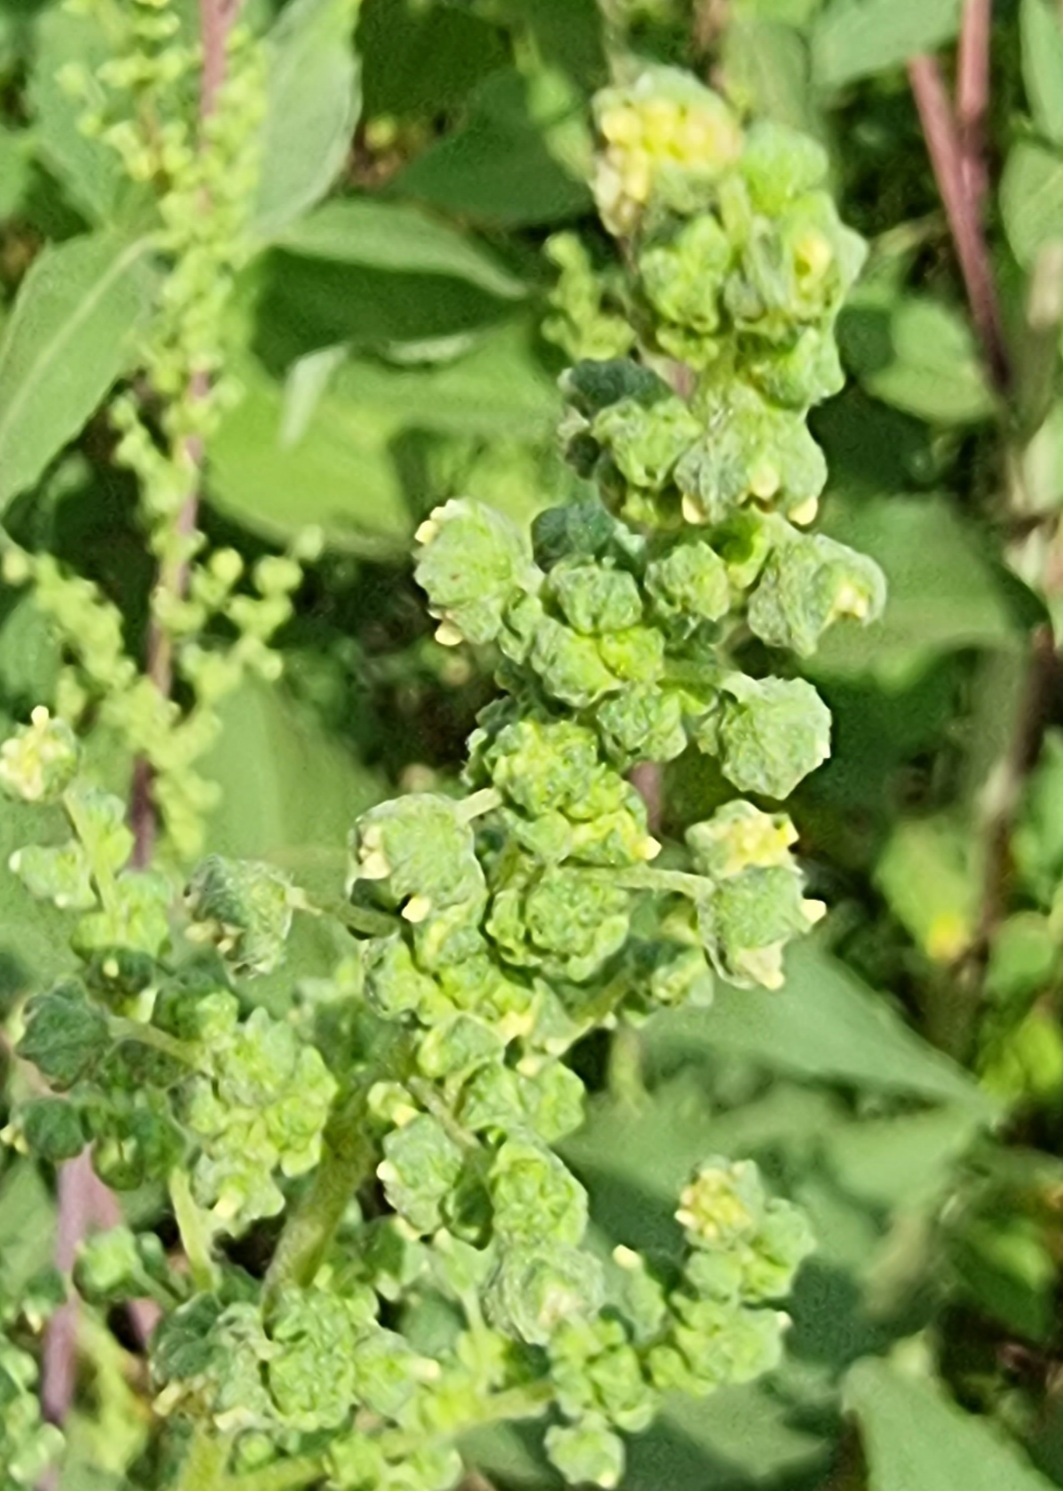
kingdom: Plantae
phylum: Tracheophyta
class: Magnoliopsida
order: Asterales
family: Asteraceae
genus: Cyclachaena
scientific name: Cyclachaena xanthiifolia
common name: Giant sumpweed
